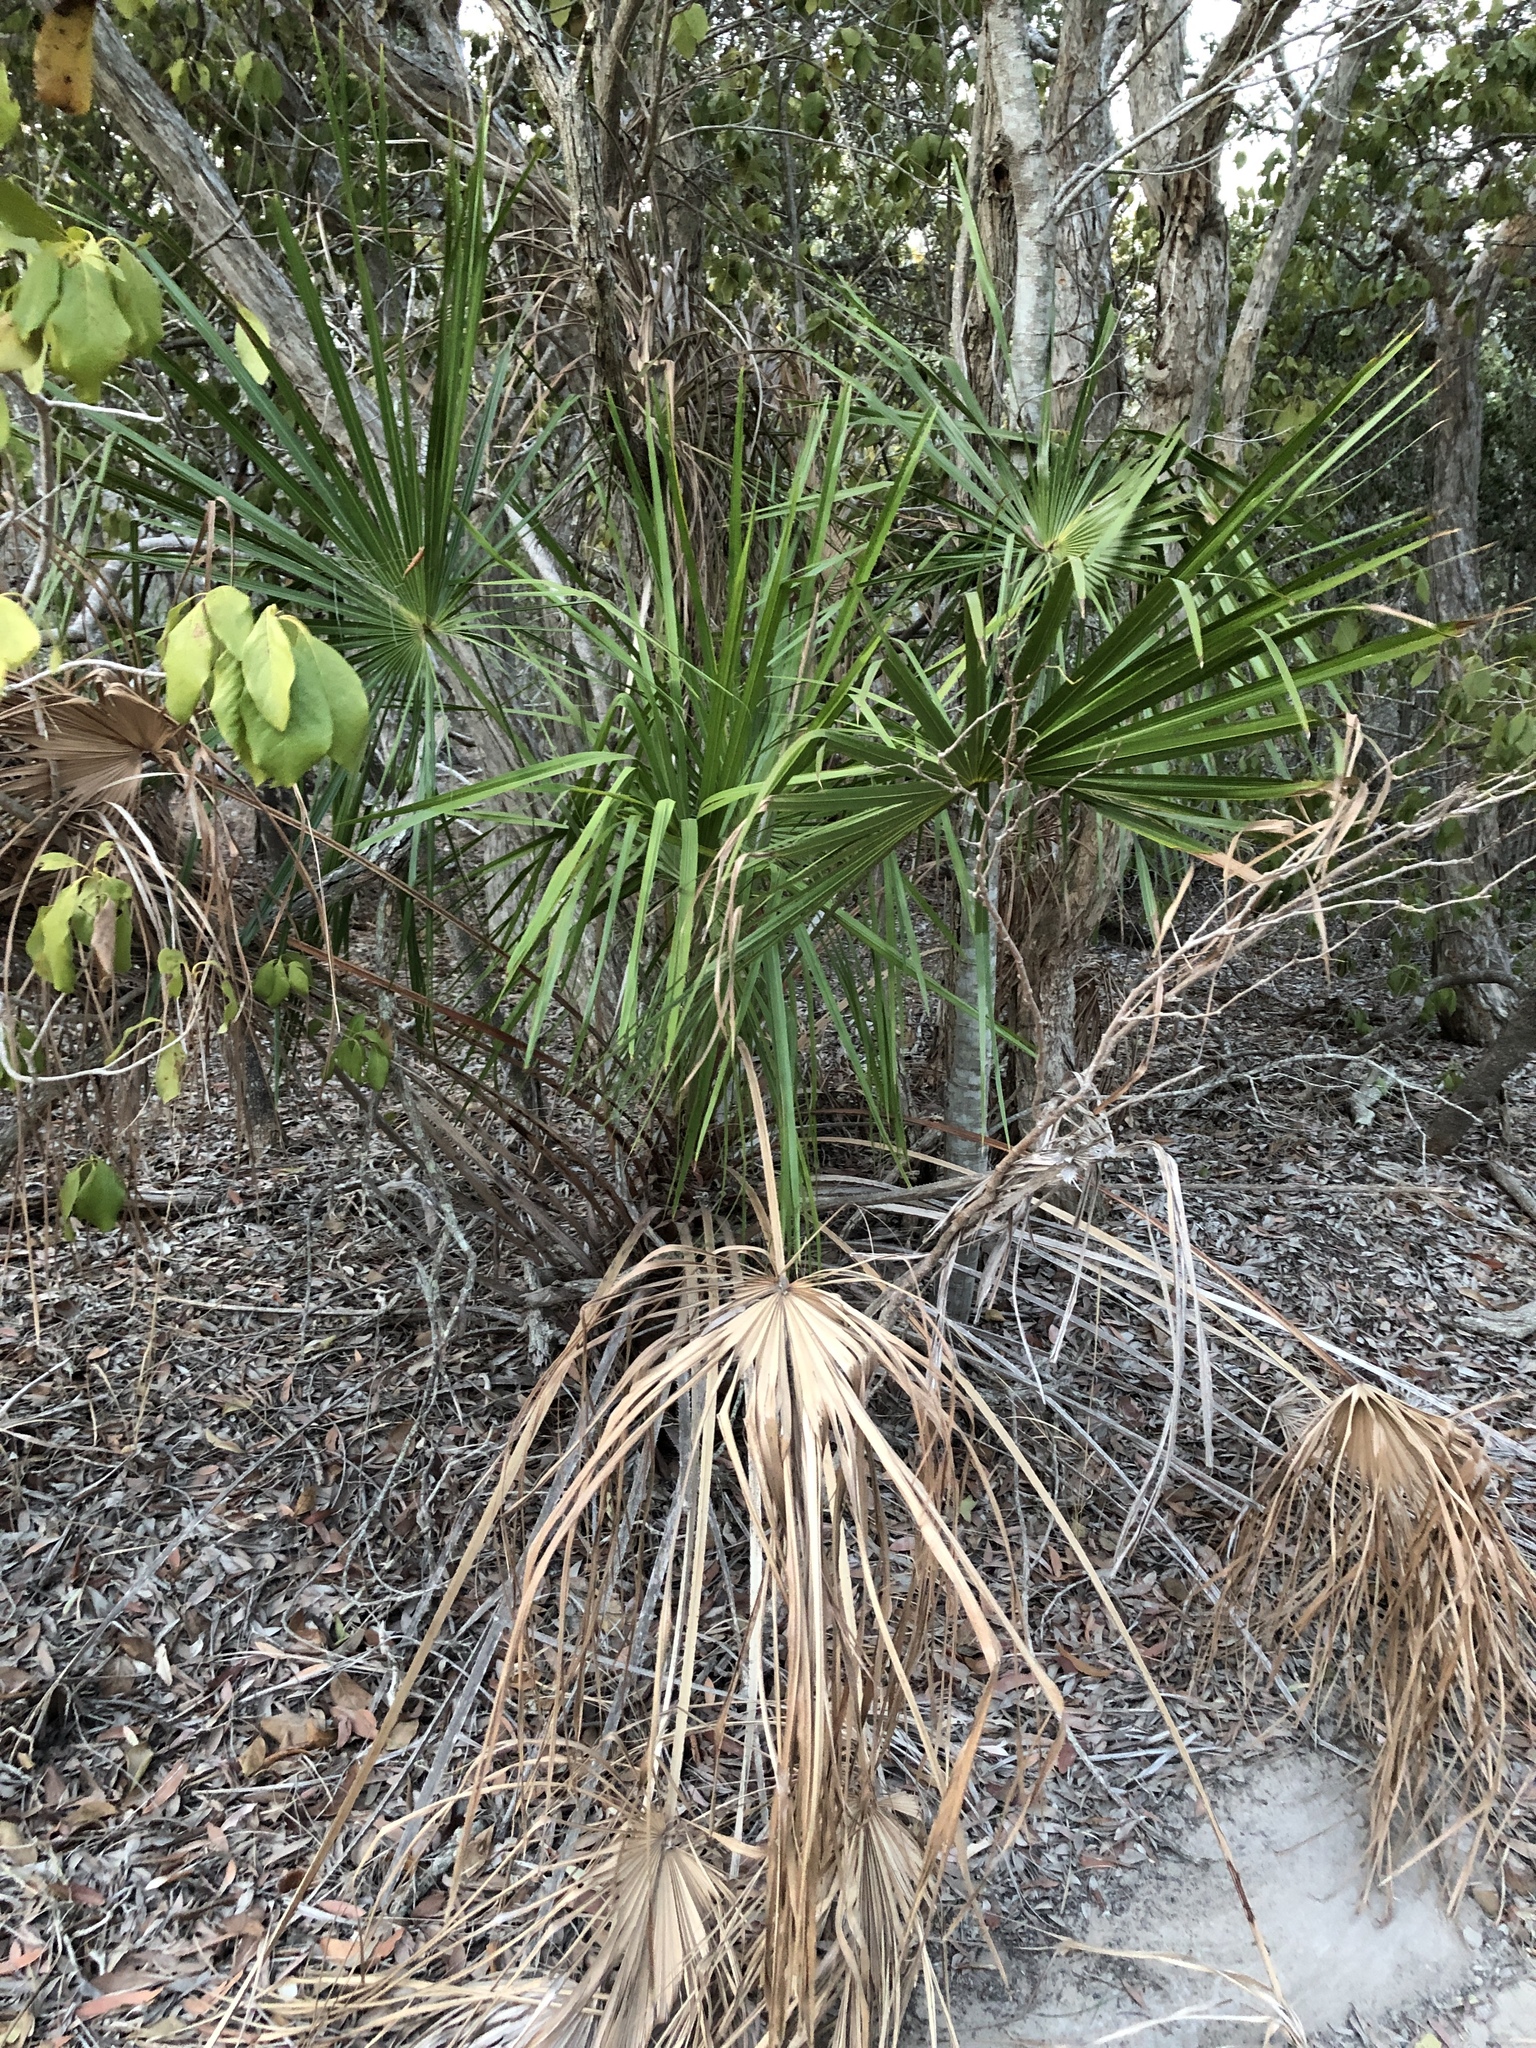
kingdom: Plantae
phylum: Tracheophyta
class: Liliopsida
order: Arecales
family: Arecaceae
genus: Livistona
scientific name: Livistona decora
